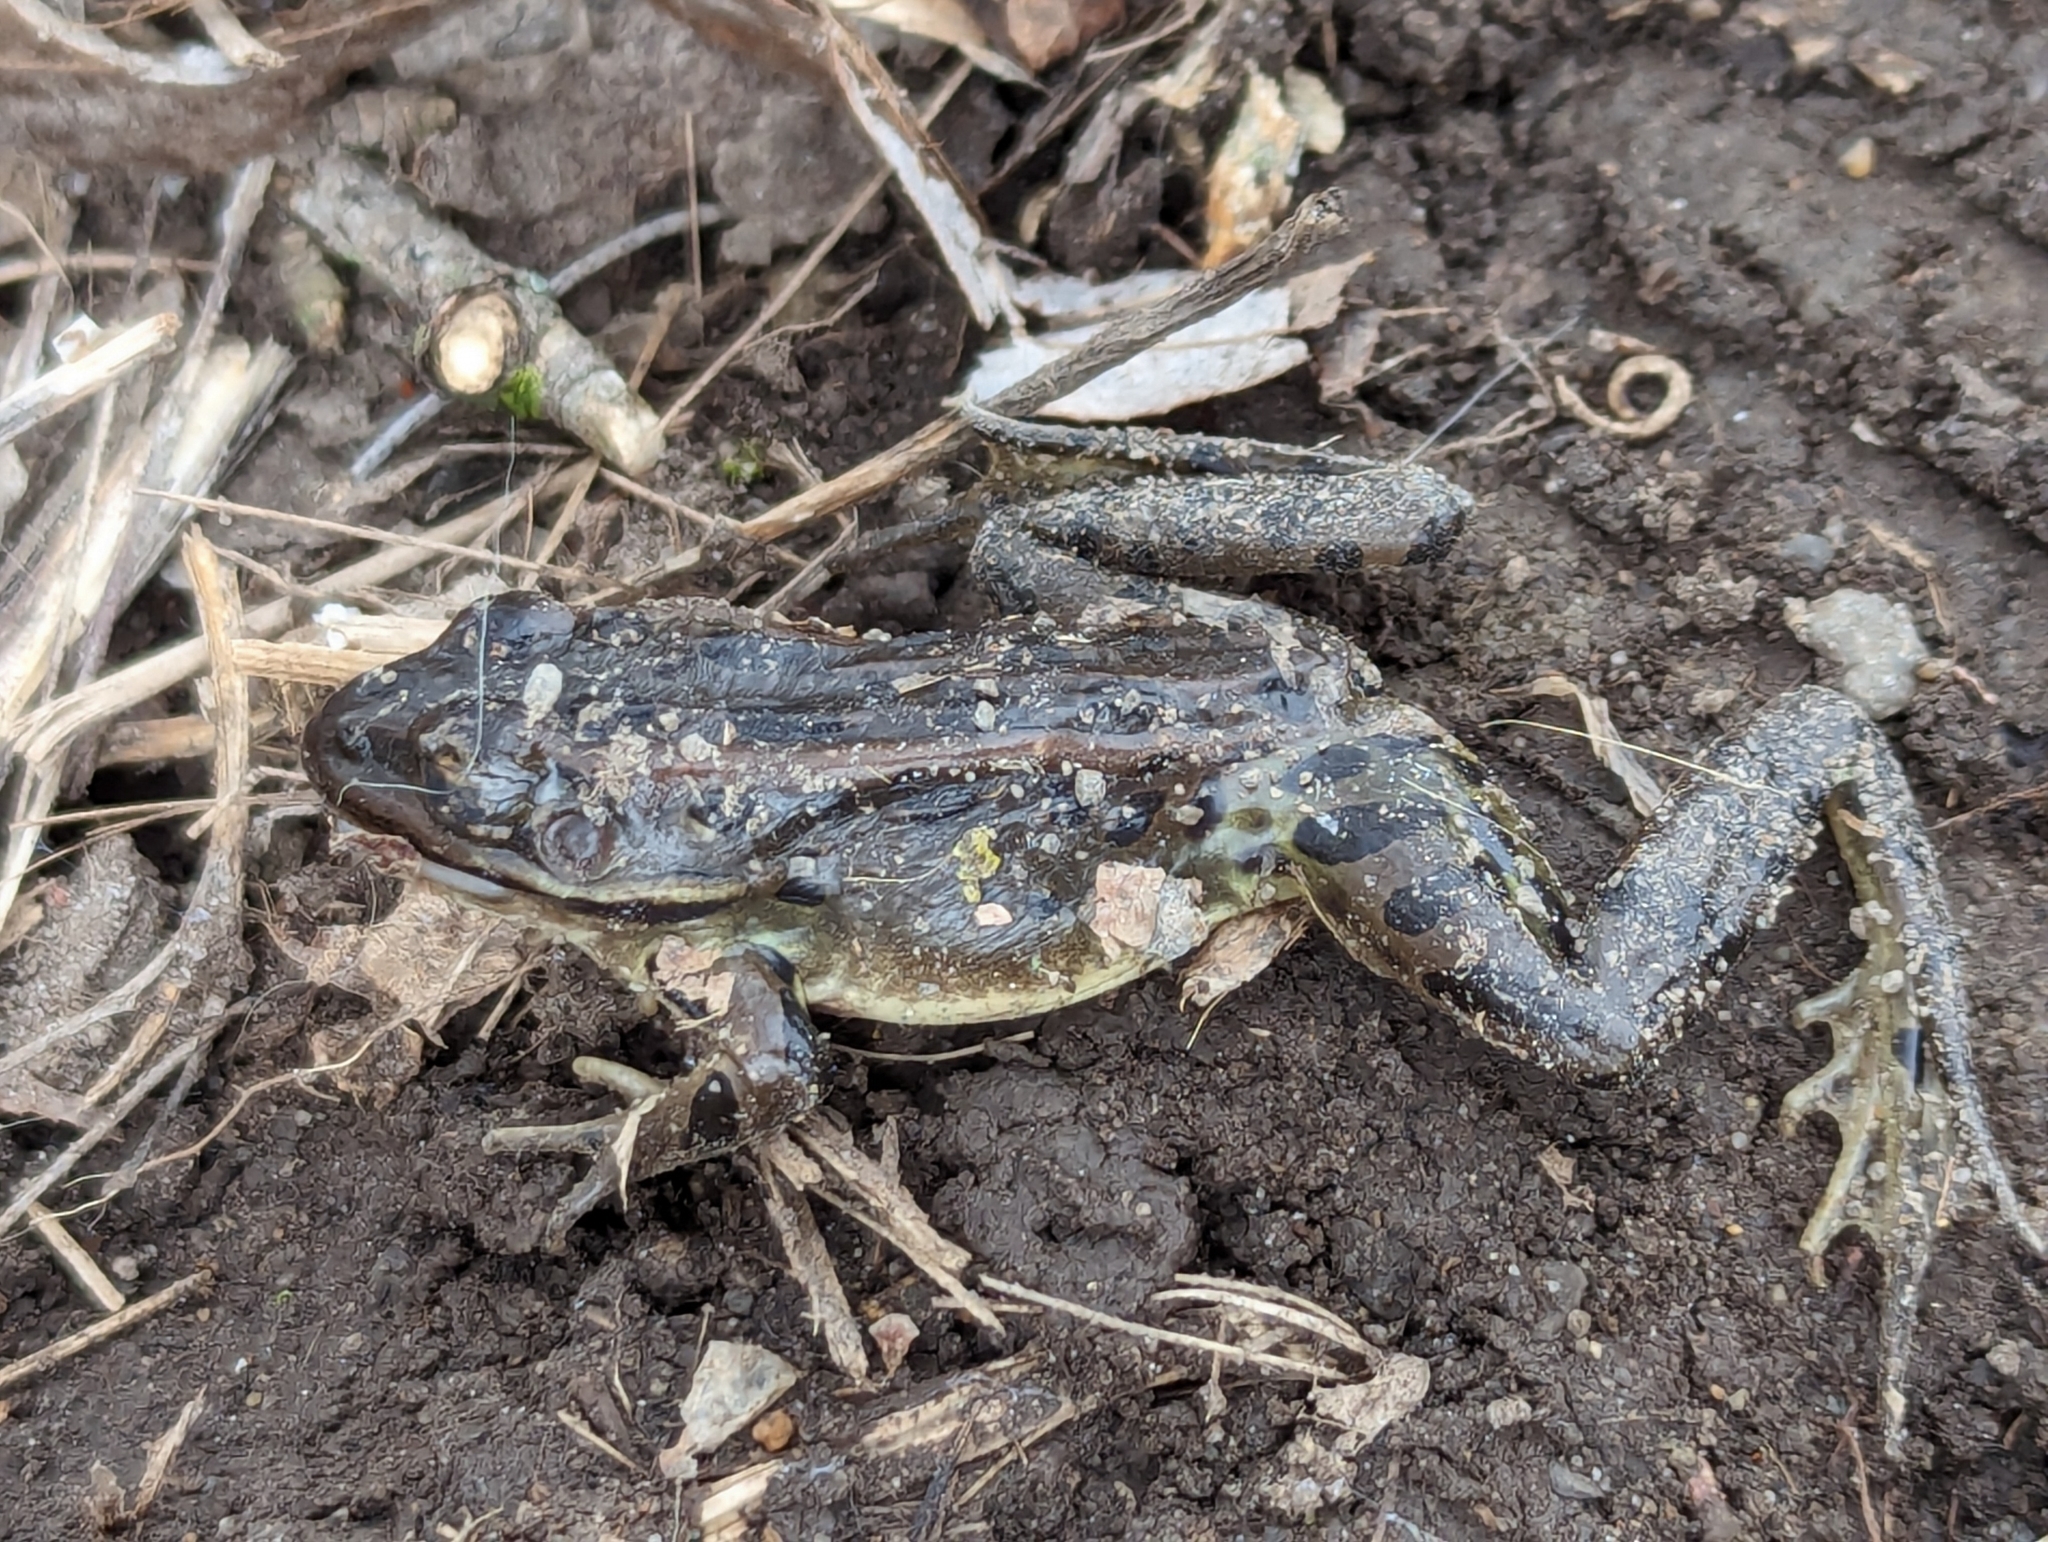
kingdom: Animalia
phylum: Chordata
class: Amphibia
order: Anura
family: Ranidae
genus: Lithobates
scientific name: Lithobates pipiens
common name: Northern leopard frog
